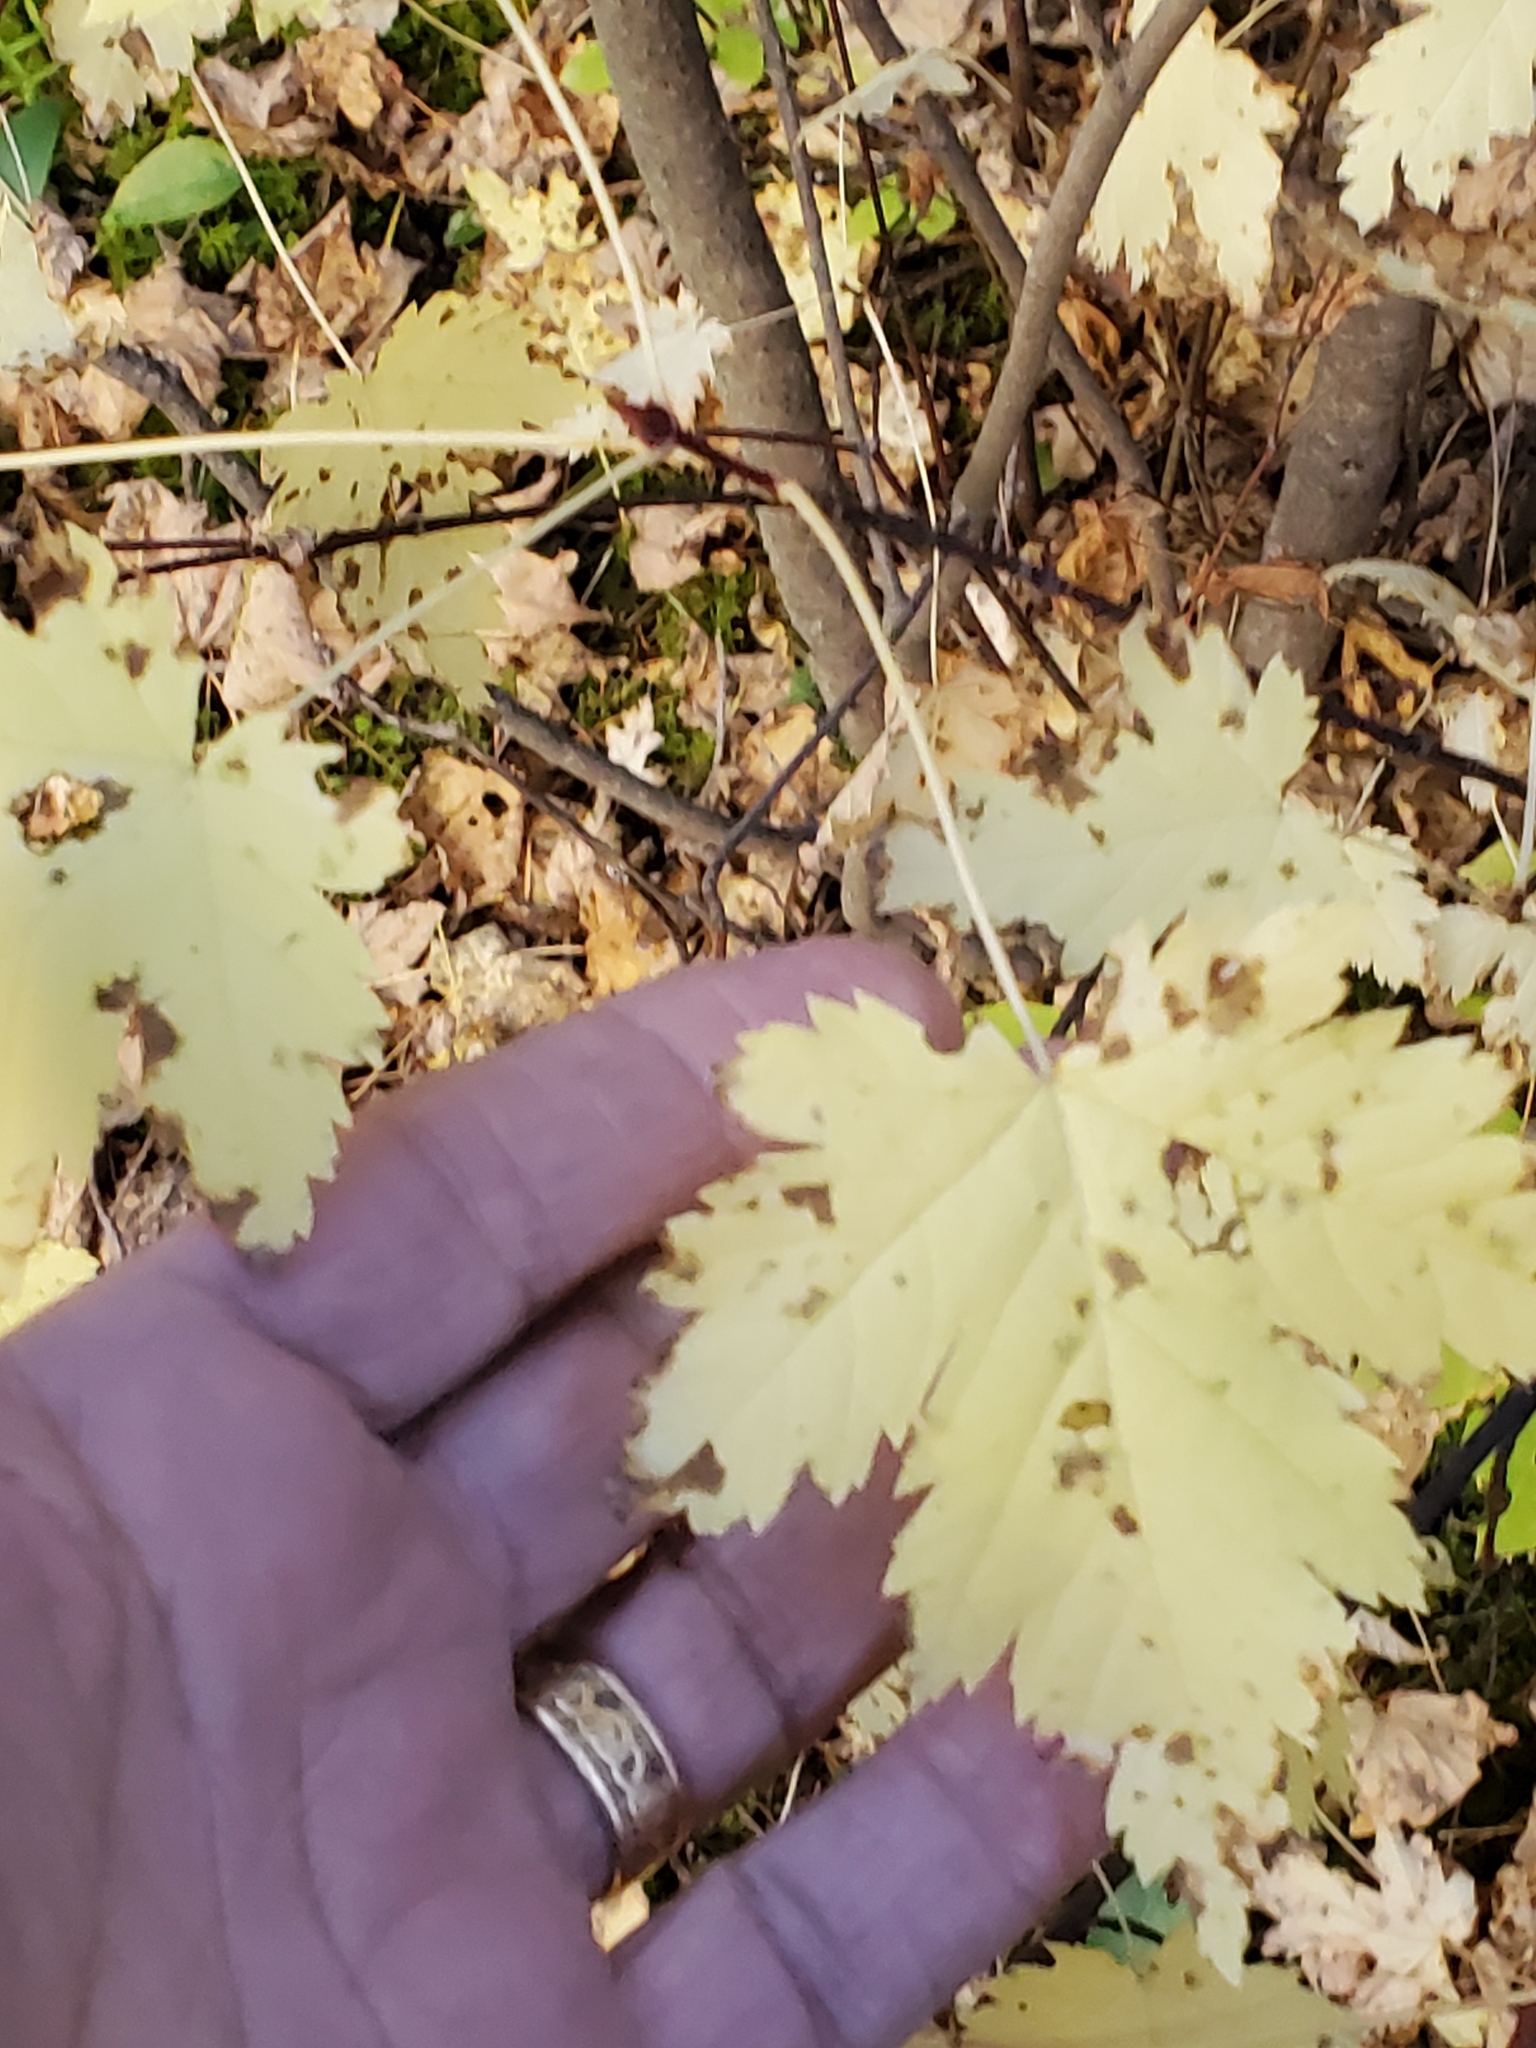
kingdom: Plantae
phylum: Tracheophyta
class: Magnoliopsida
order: Sapindales
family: Sapindaceae
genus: Acer
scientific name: Acer glabrum
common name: Rocky mountain maple
